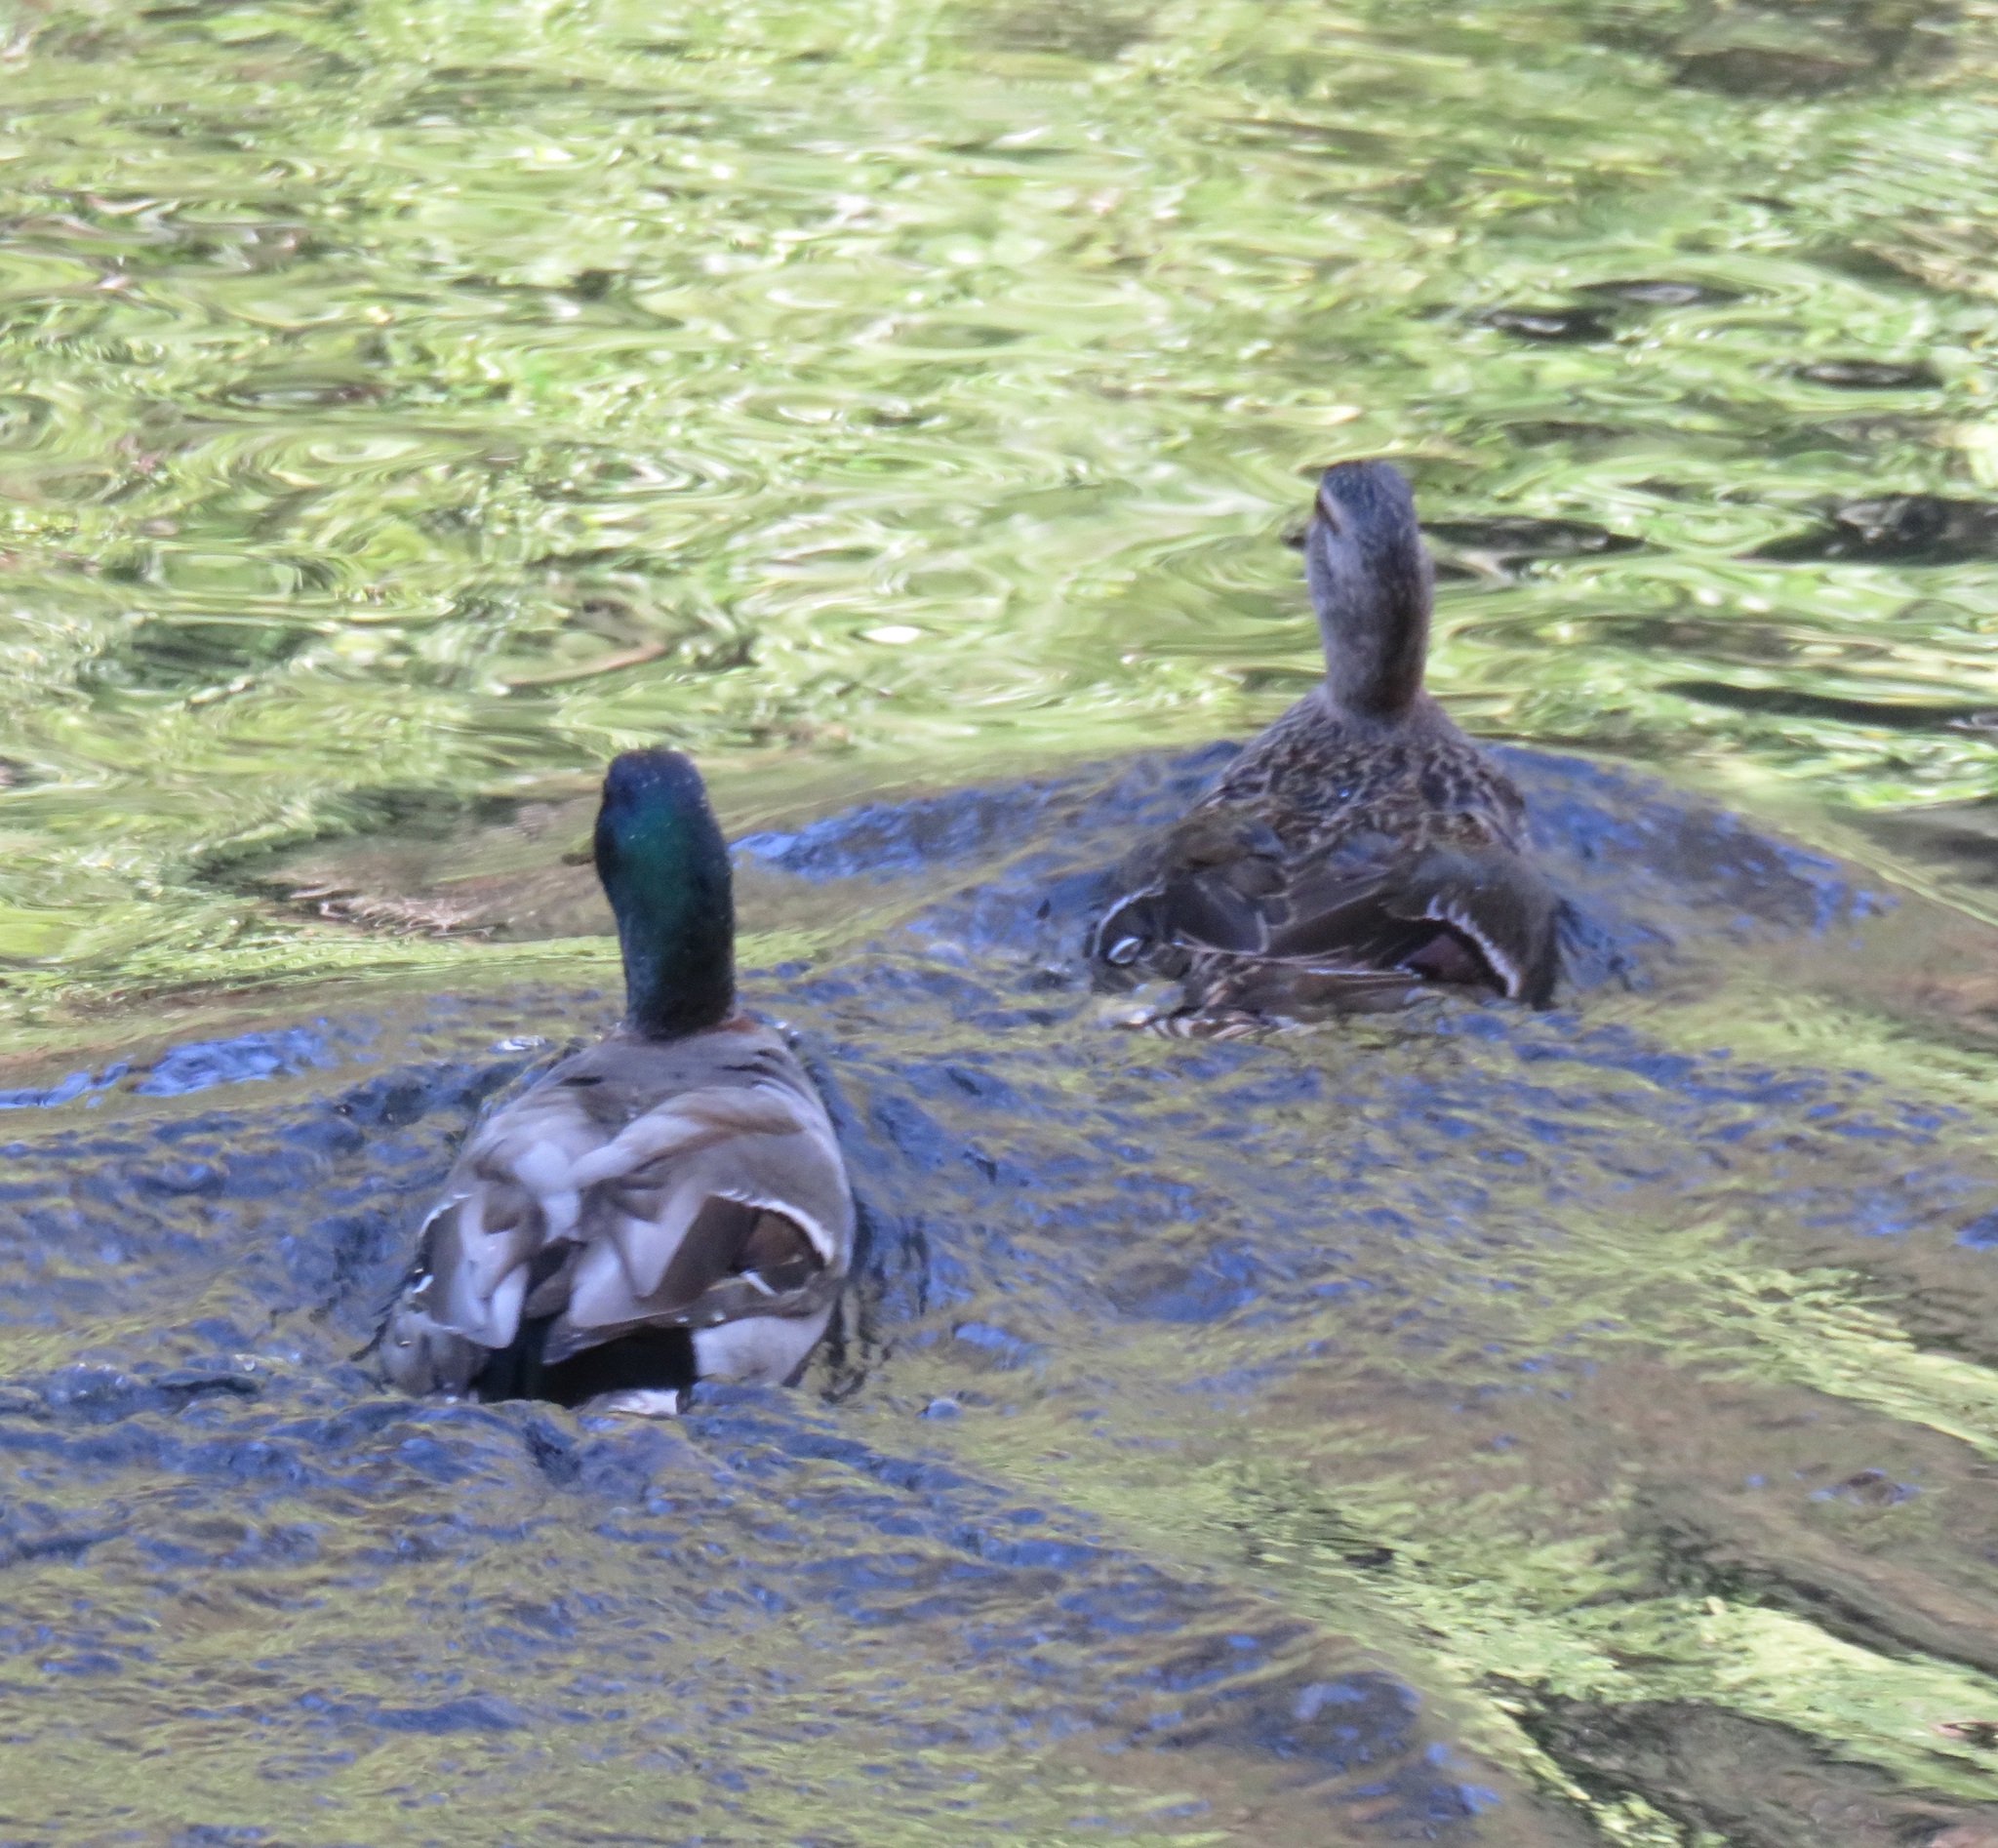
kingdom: Animalia
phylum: Chordata
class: Aves
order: Anseriformes
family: Anatidae
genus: Anas
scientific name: Anas platyrhynchos
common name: Mallard
